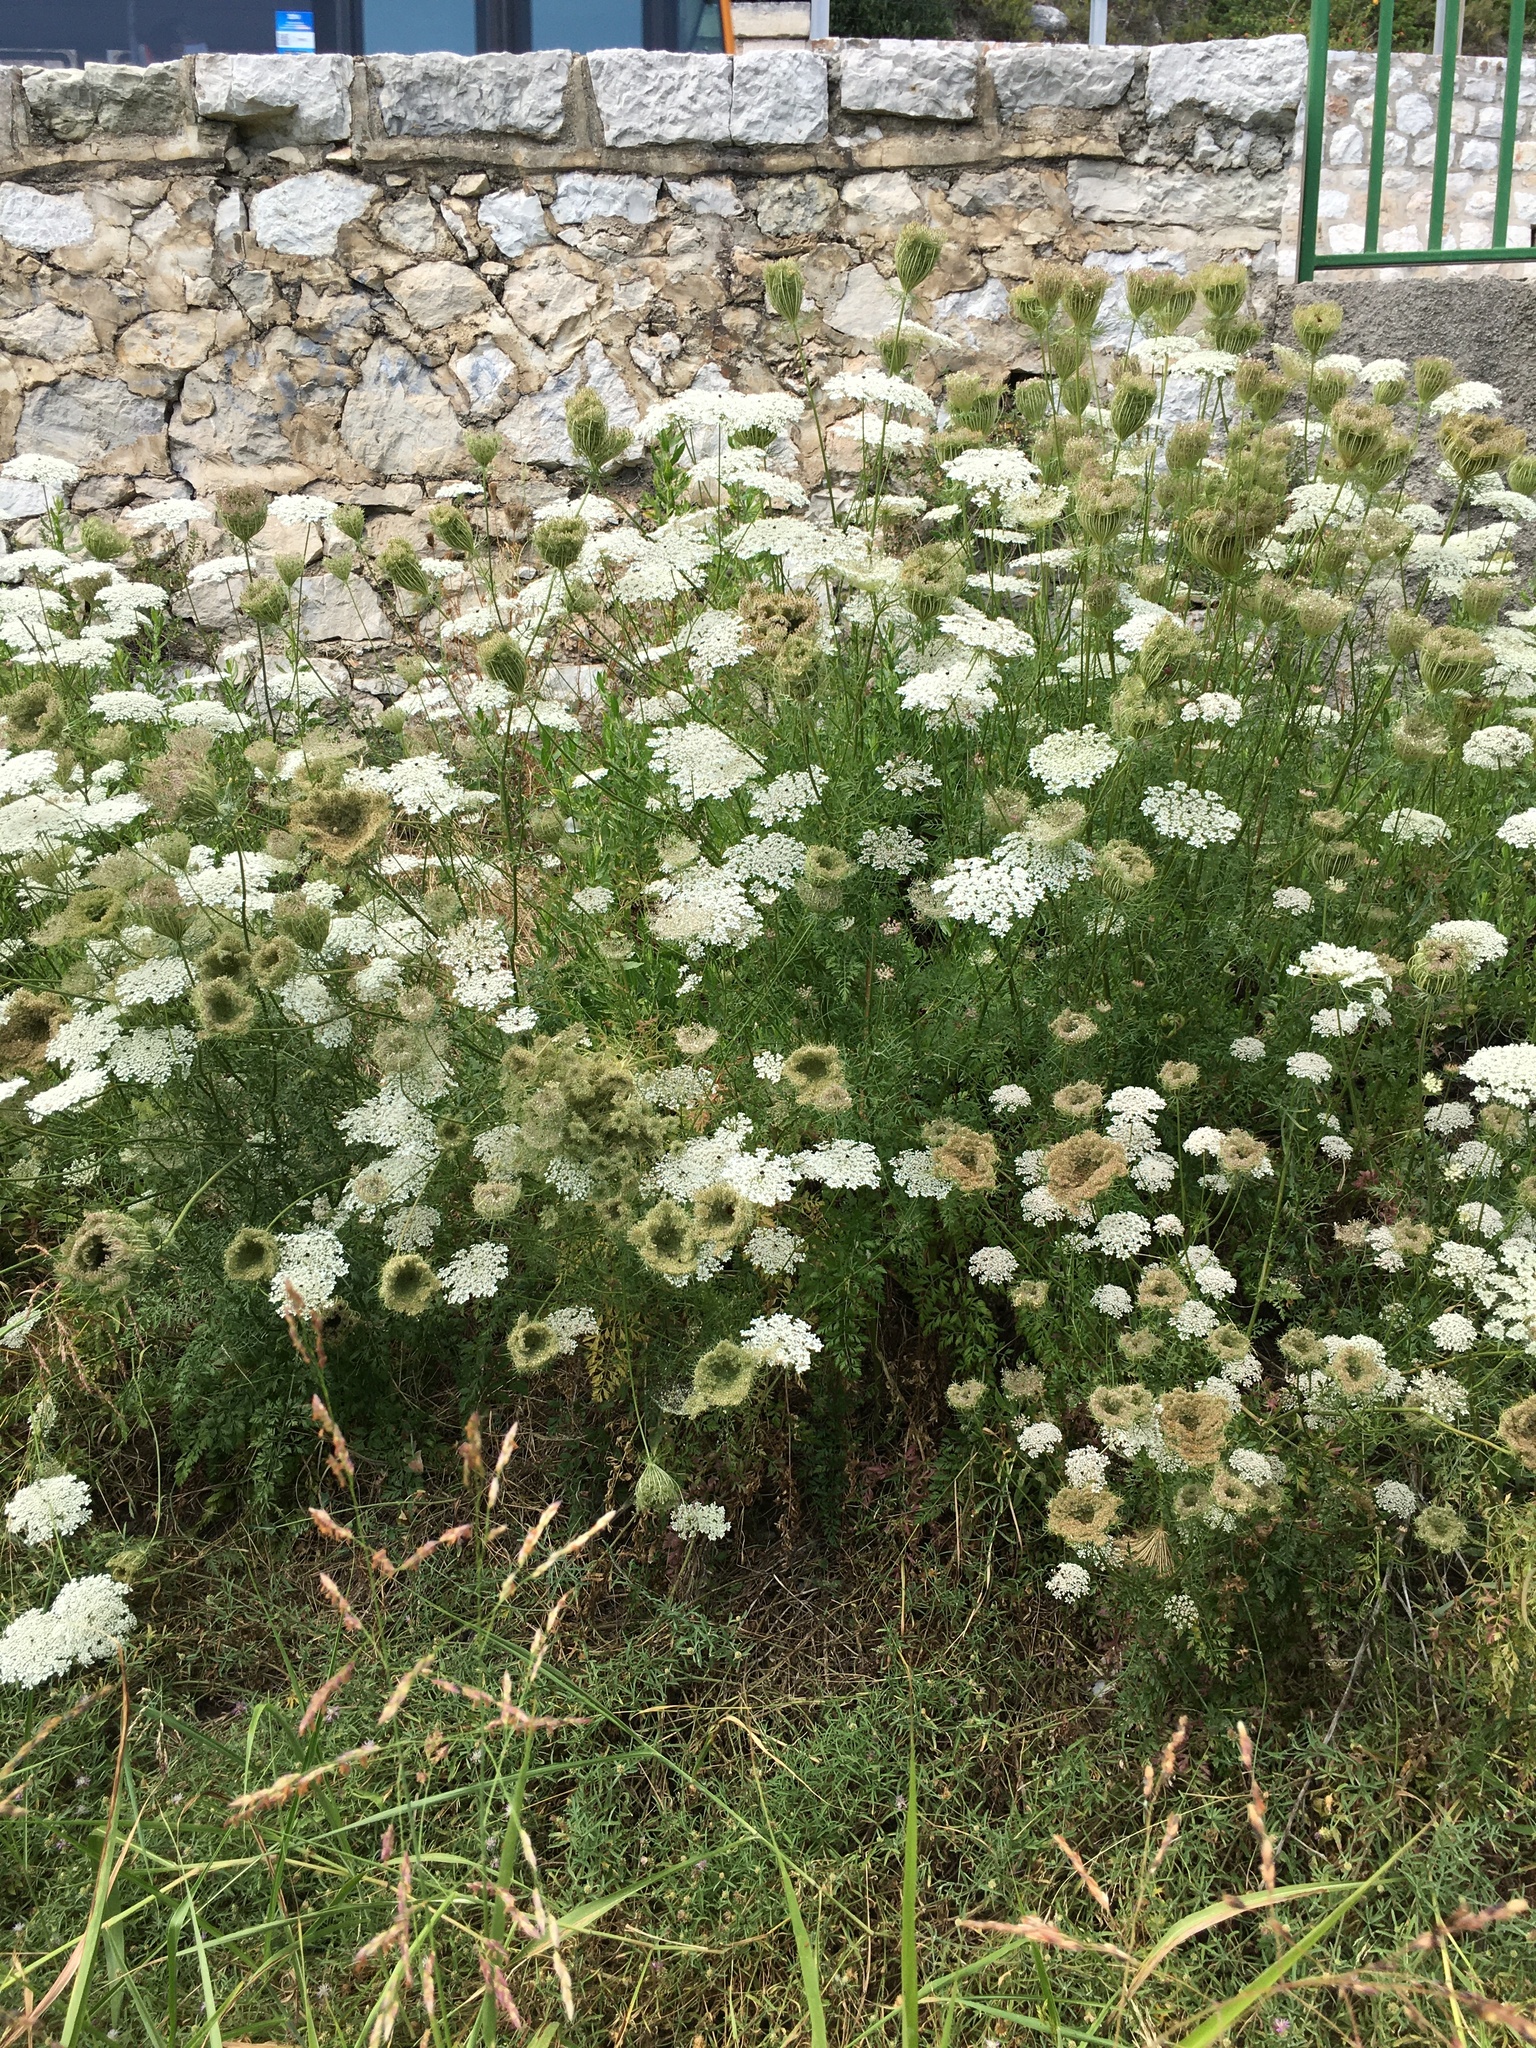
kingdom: Plantae
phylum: Tracheophyta
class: Magnoliopsida
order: Apiales
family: Apiaceae
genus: Daucus
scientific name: Daucus carota
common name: Wild carrot
